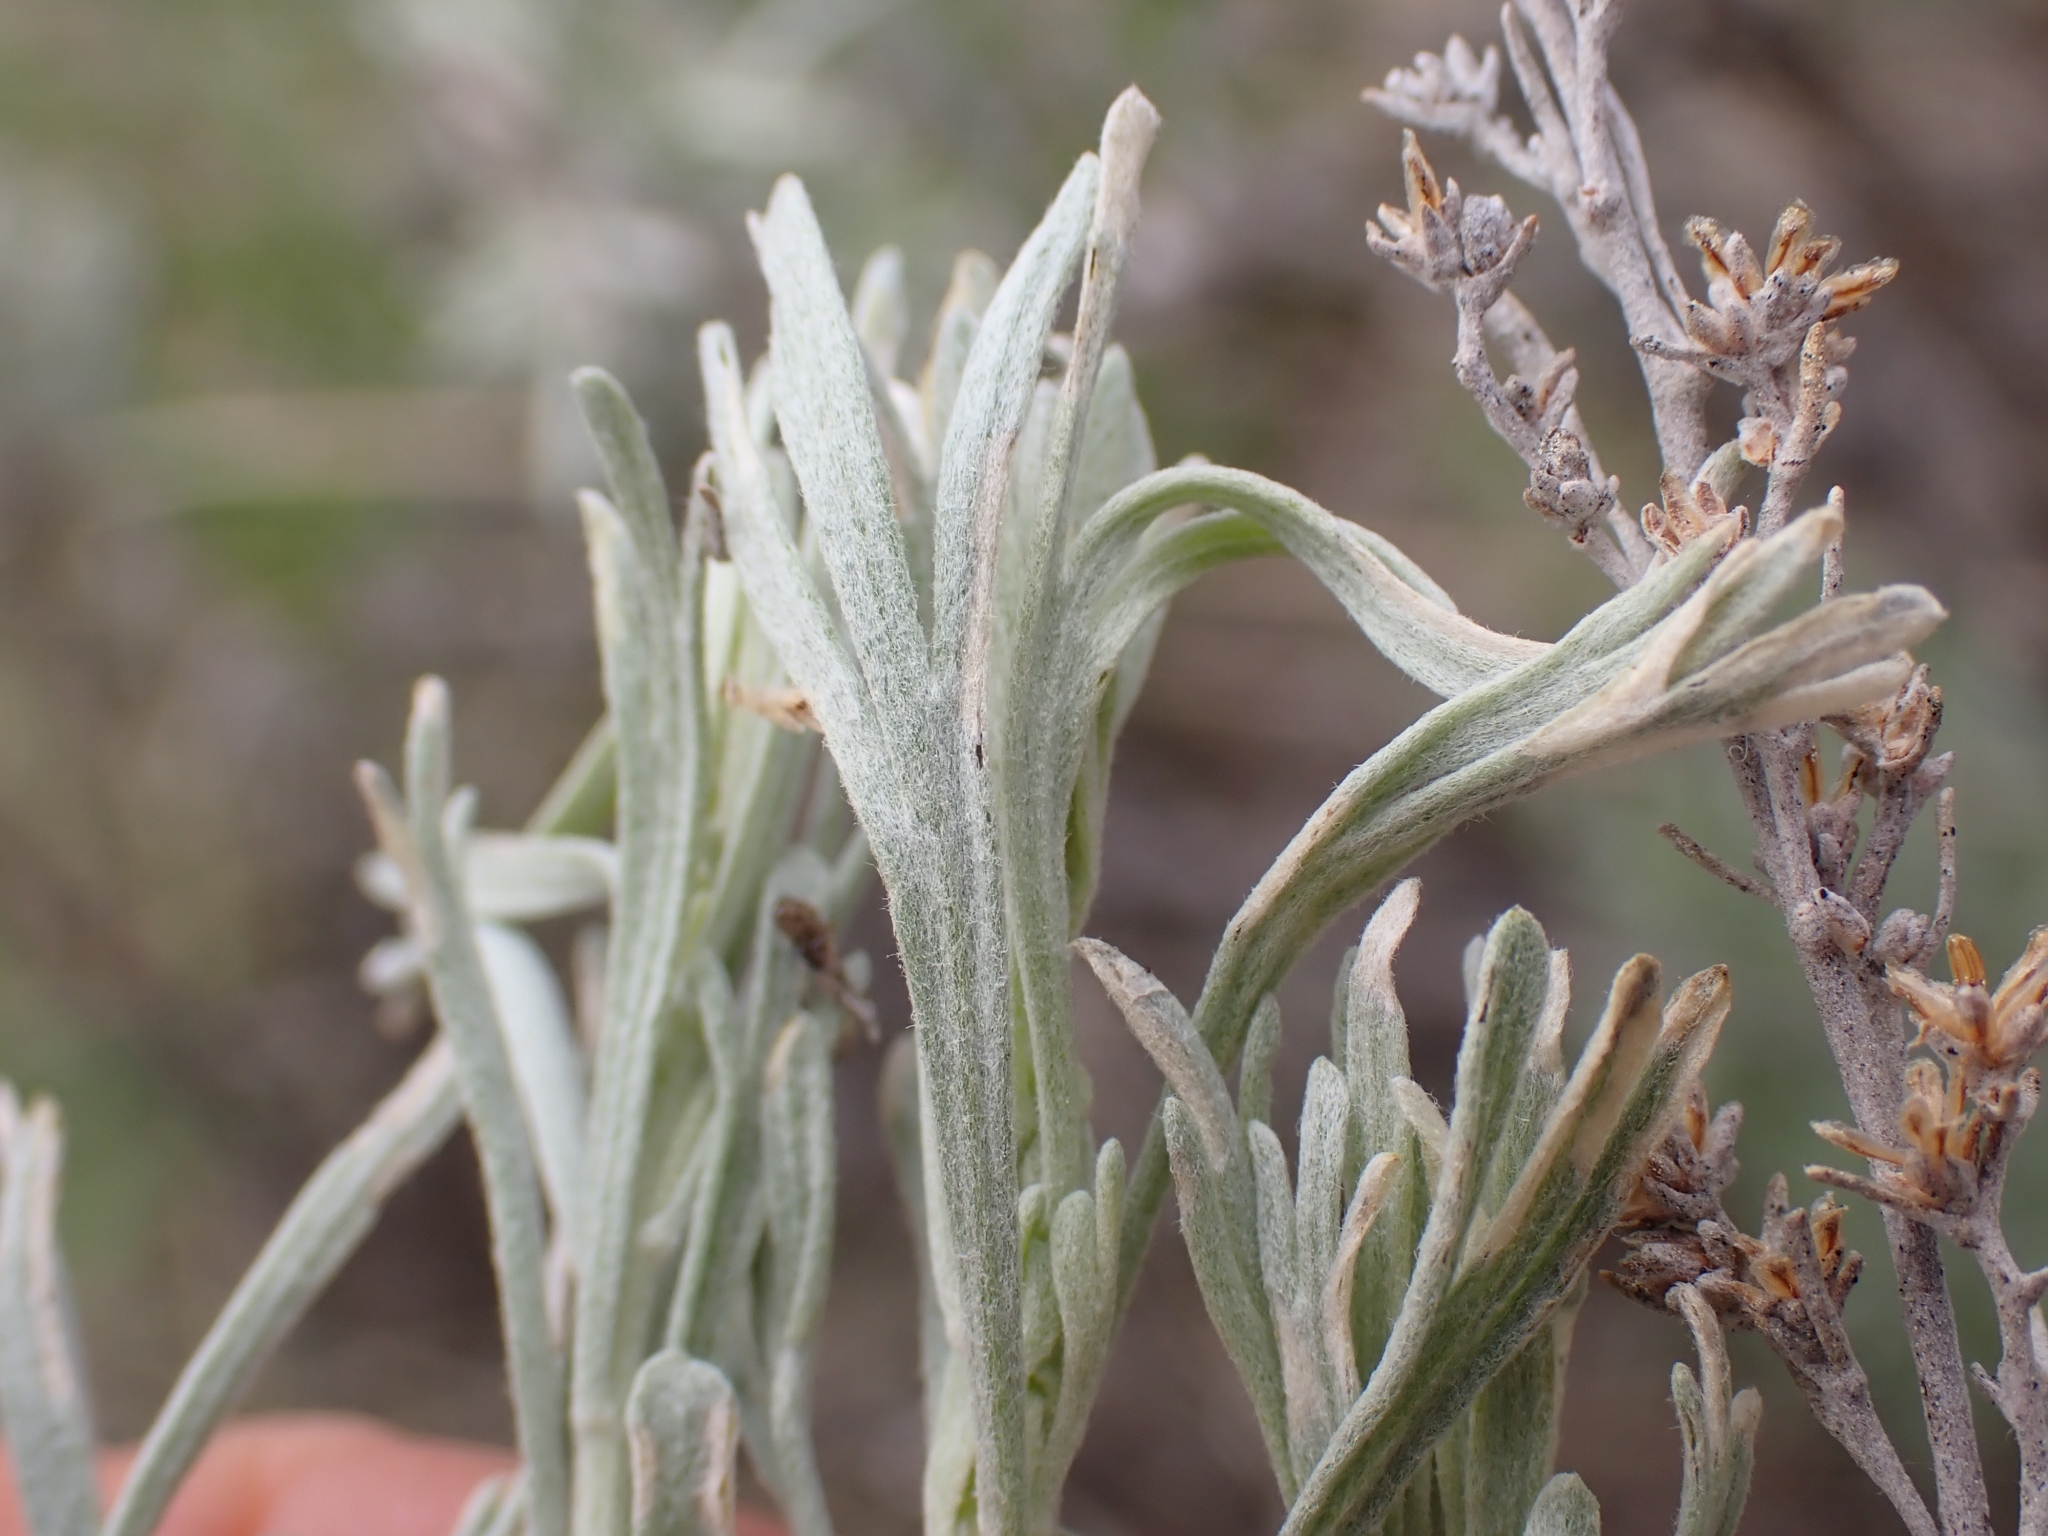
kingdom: Plantae
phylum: Tracheophyta
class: Magnoliopsida
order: Asterales
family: Asteraceae
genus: Artemisia
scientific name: Artemisia tripartita
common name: Three-tip sagebrush
